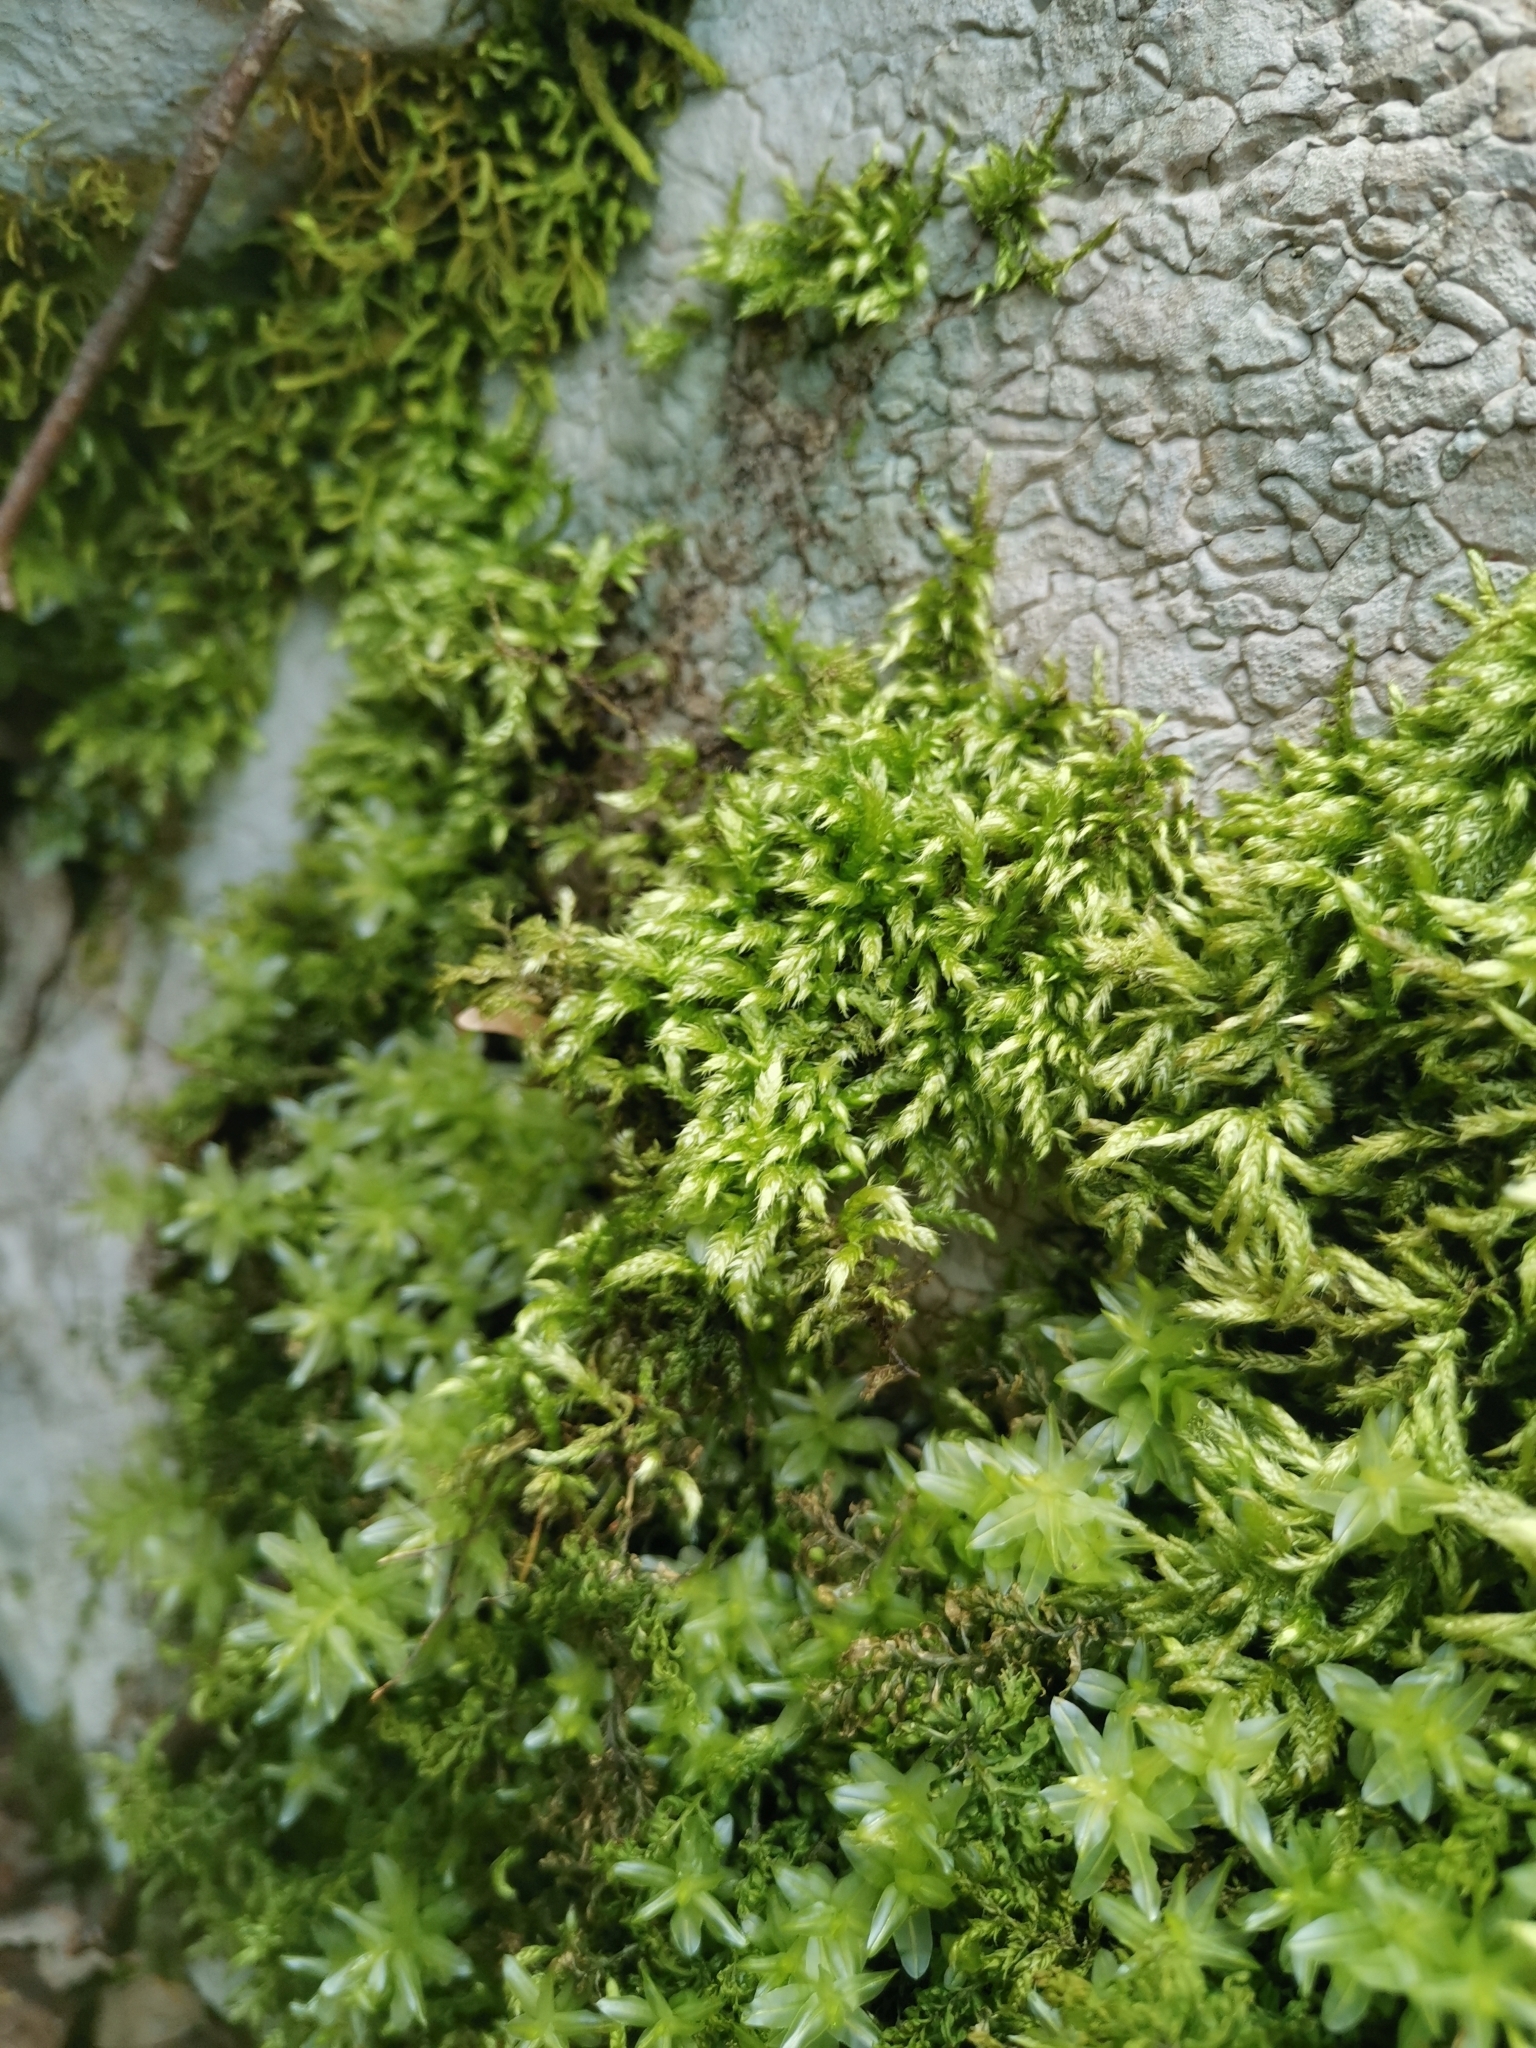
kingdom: Plantae
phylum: Bryophyta
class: Bryopsida
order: Hypnales
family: Brachytheciaceae
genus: Cirriphyllum
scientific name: Cirriphyllum crassinervium
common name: Beech feather-moss
